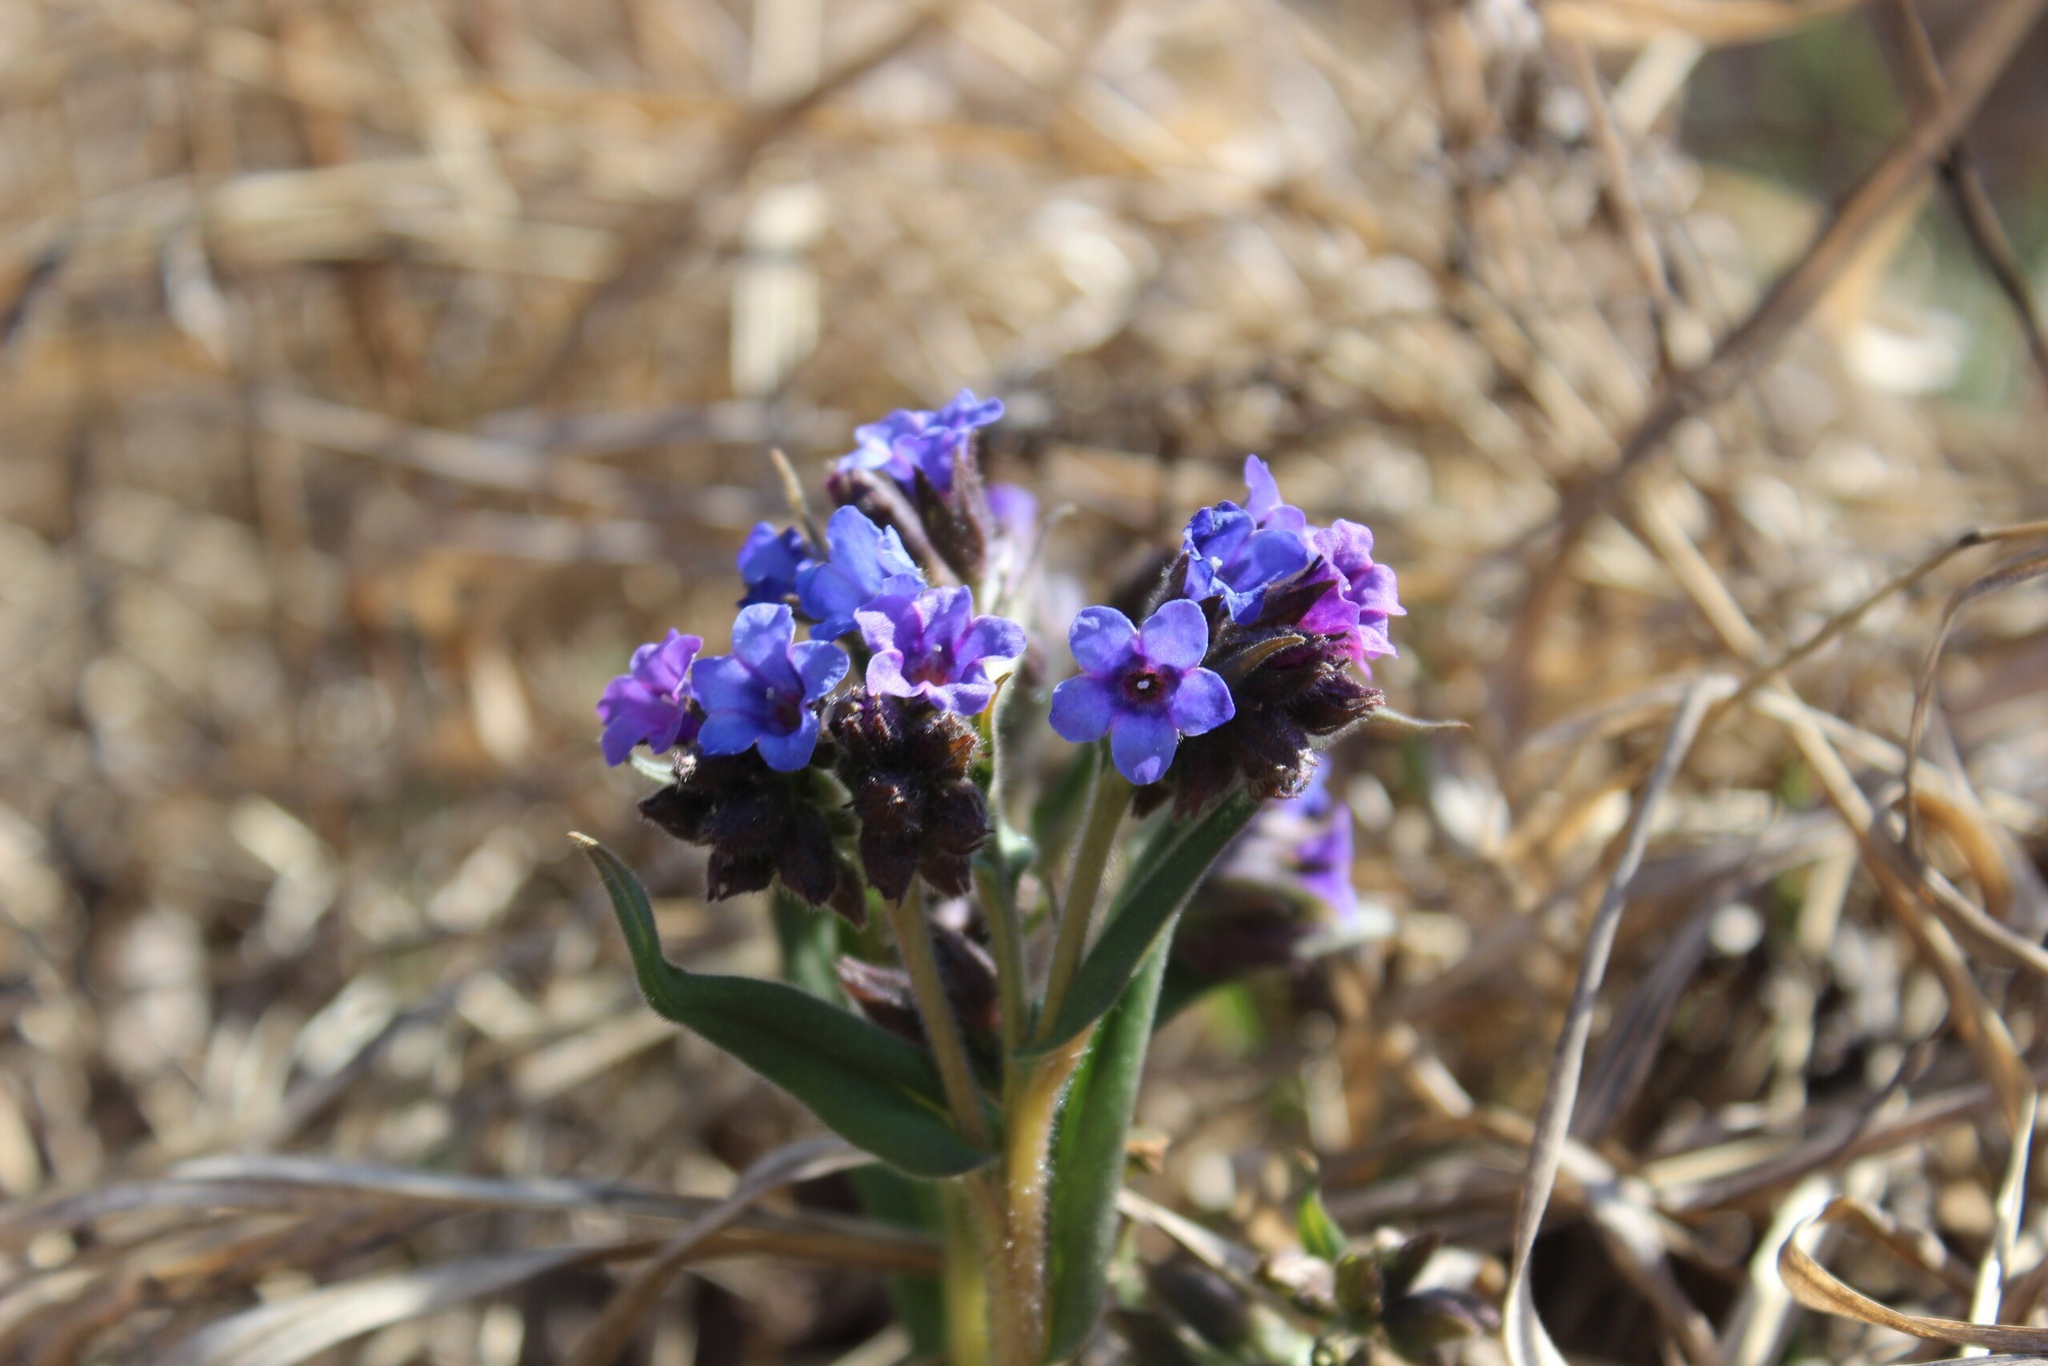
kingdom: Plantae
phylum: Tracheophyta
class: Magnoliopsida
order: Boraginales
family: Boraginaceae
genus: Pulmonaria
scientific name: Pulmonaria angustifolia
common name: Blue cowslip
